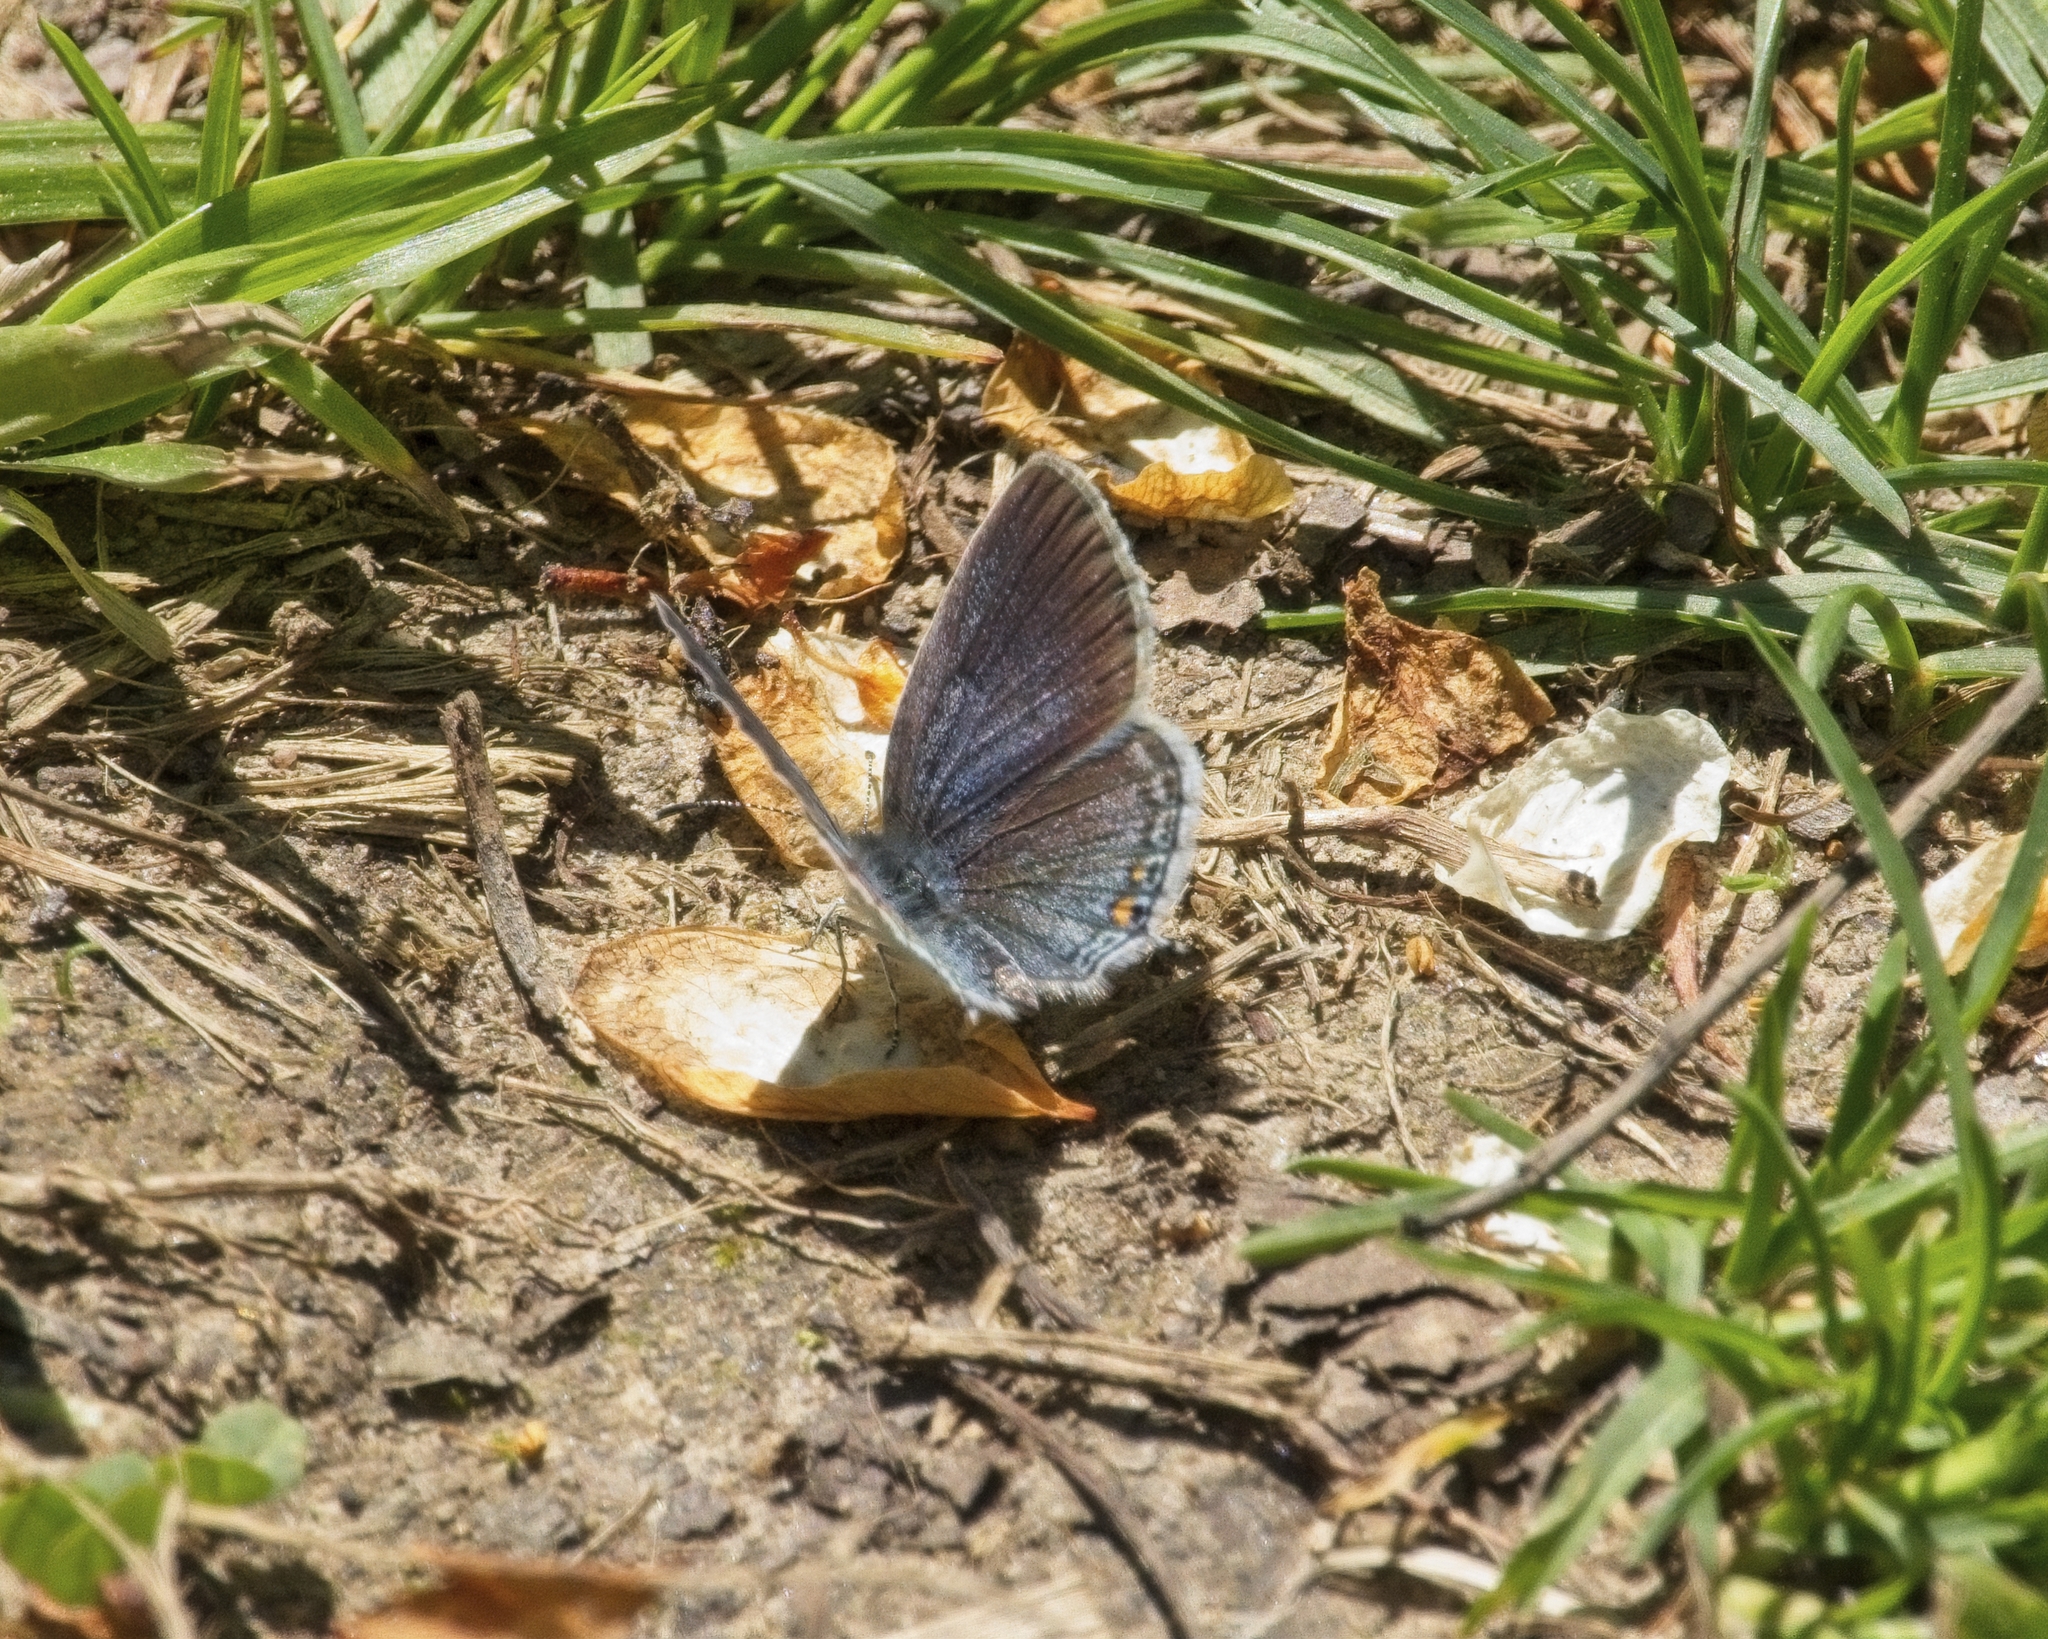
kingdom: Animalia
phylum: Arthropoda
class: Insecta
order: Lepidoptera
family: Lycaenidae
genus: Elkalyce
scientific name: Elkalyce comyntas
